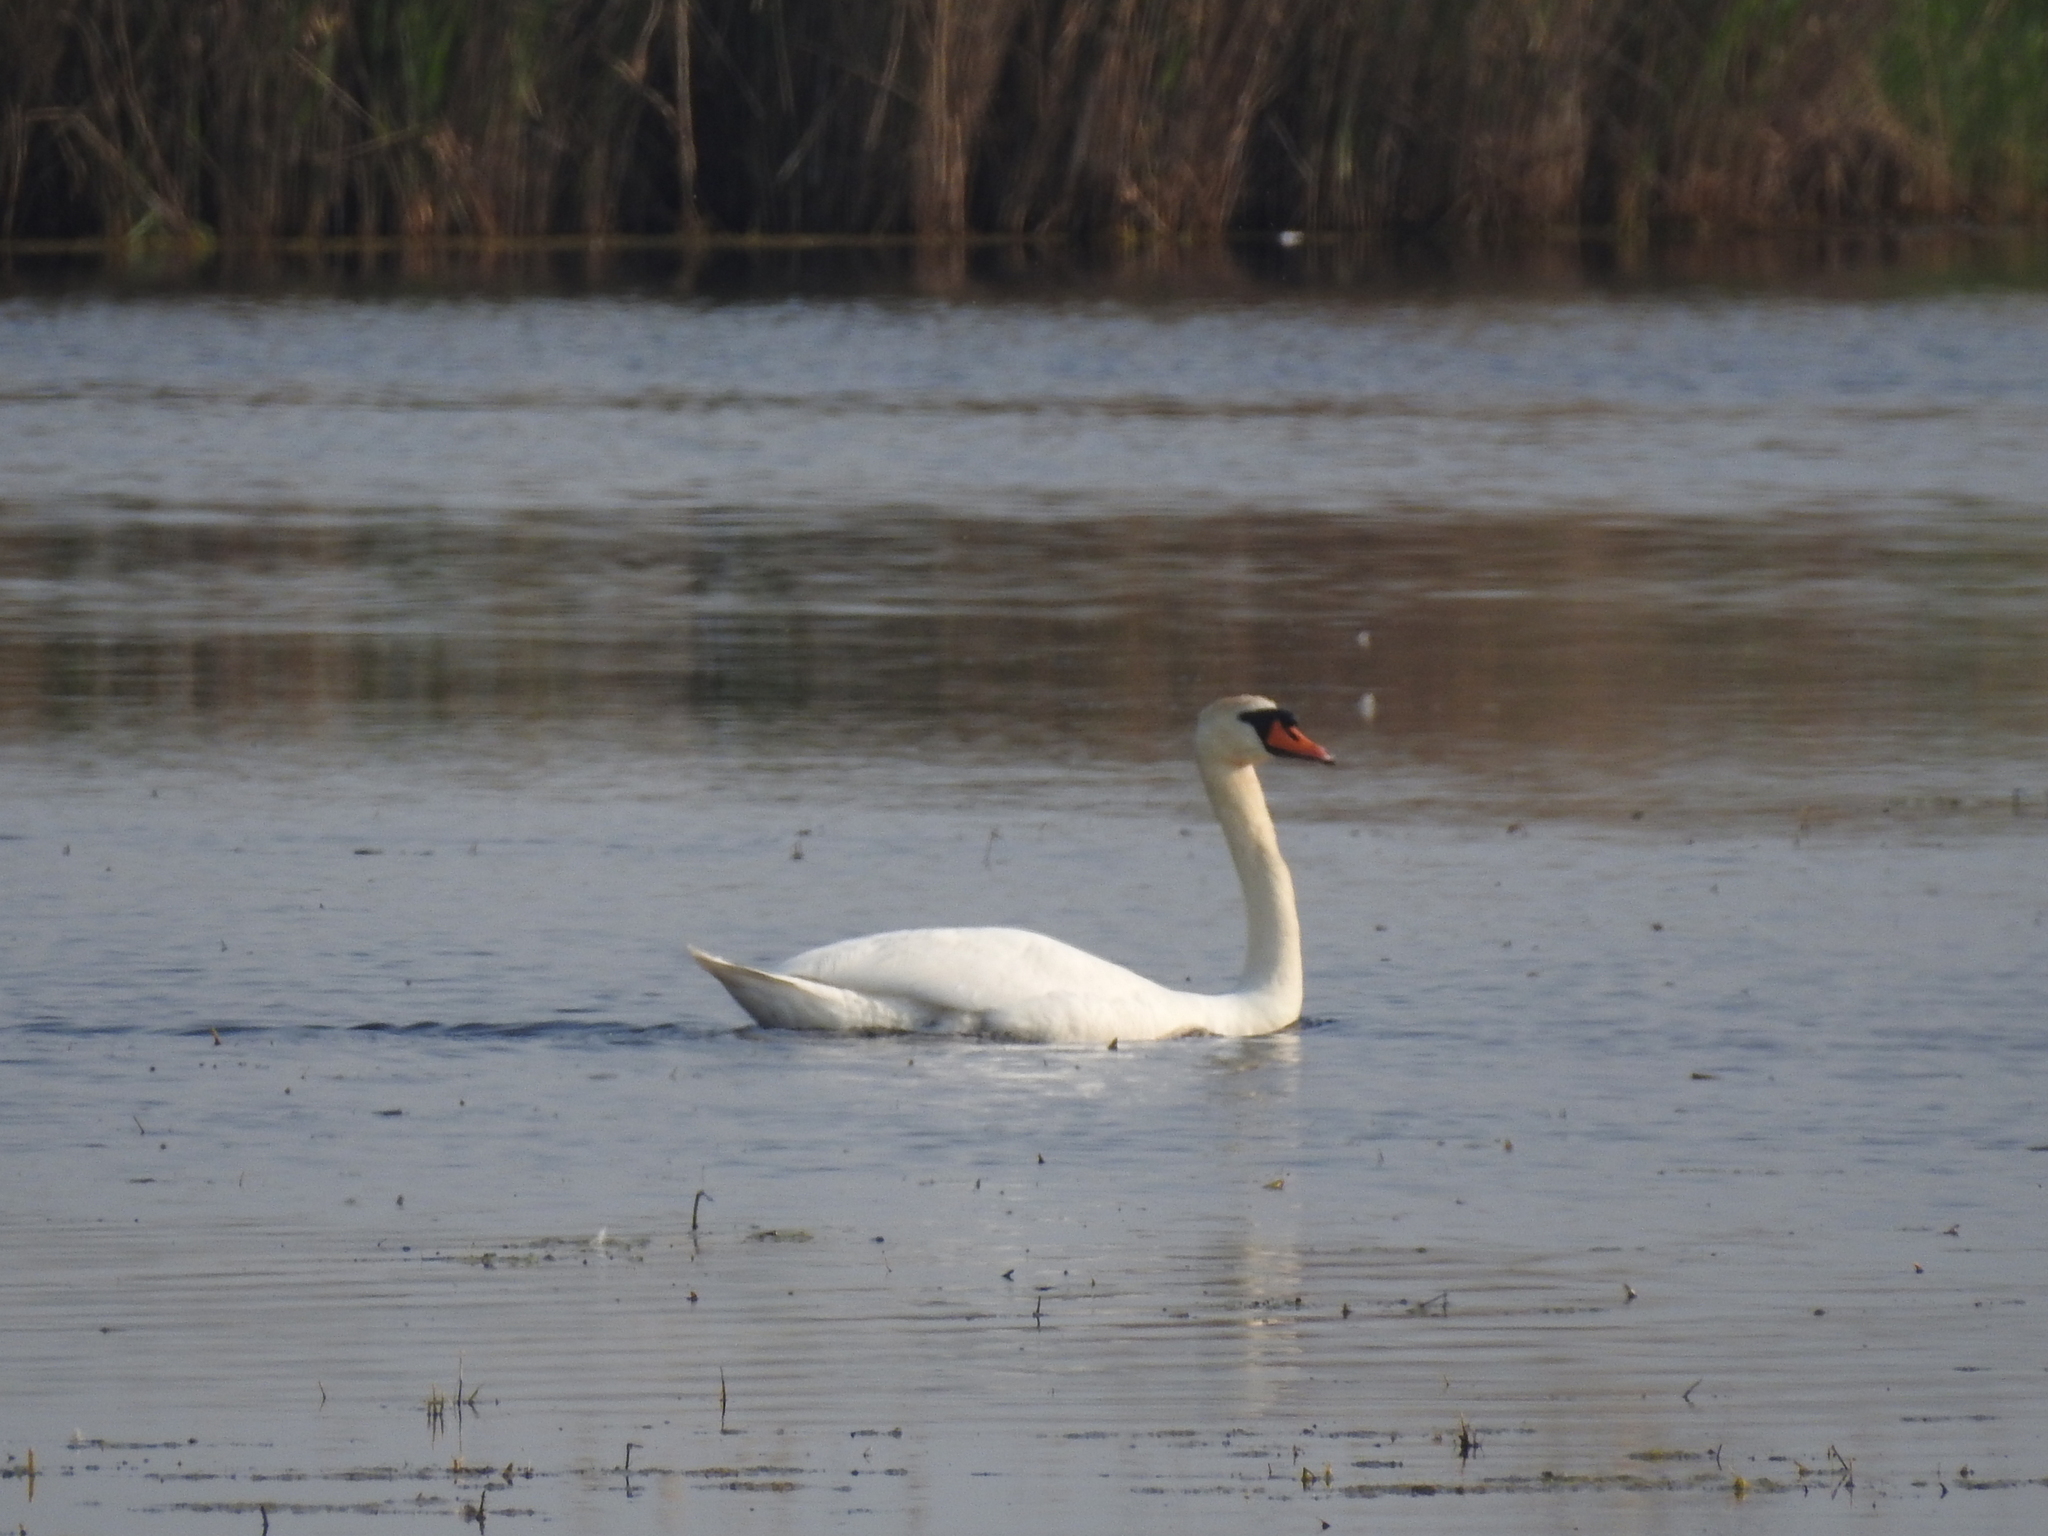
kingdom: Animalia
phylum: Chordata
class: Aves
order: Anseriformes
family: Anatidae
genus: Cygnus
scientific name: Cygnus olor
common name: Mute swan
